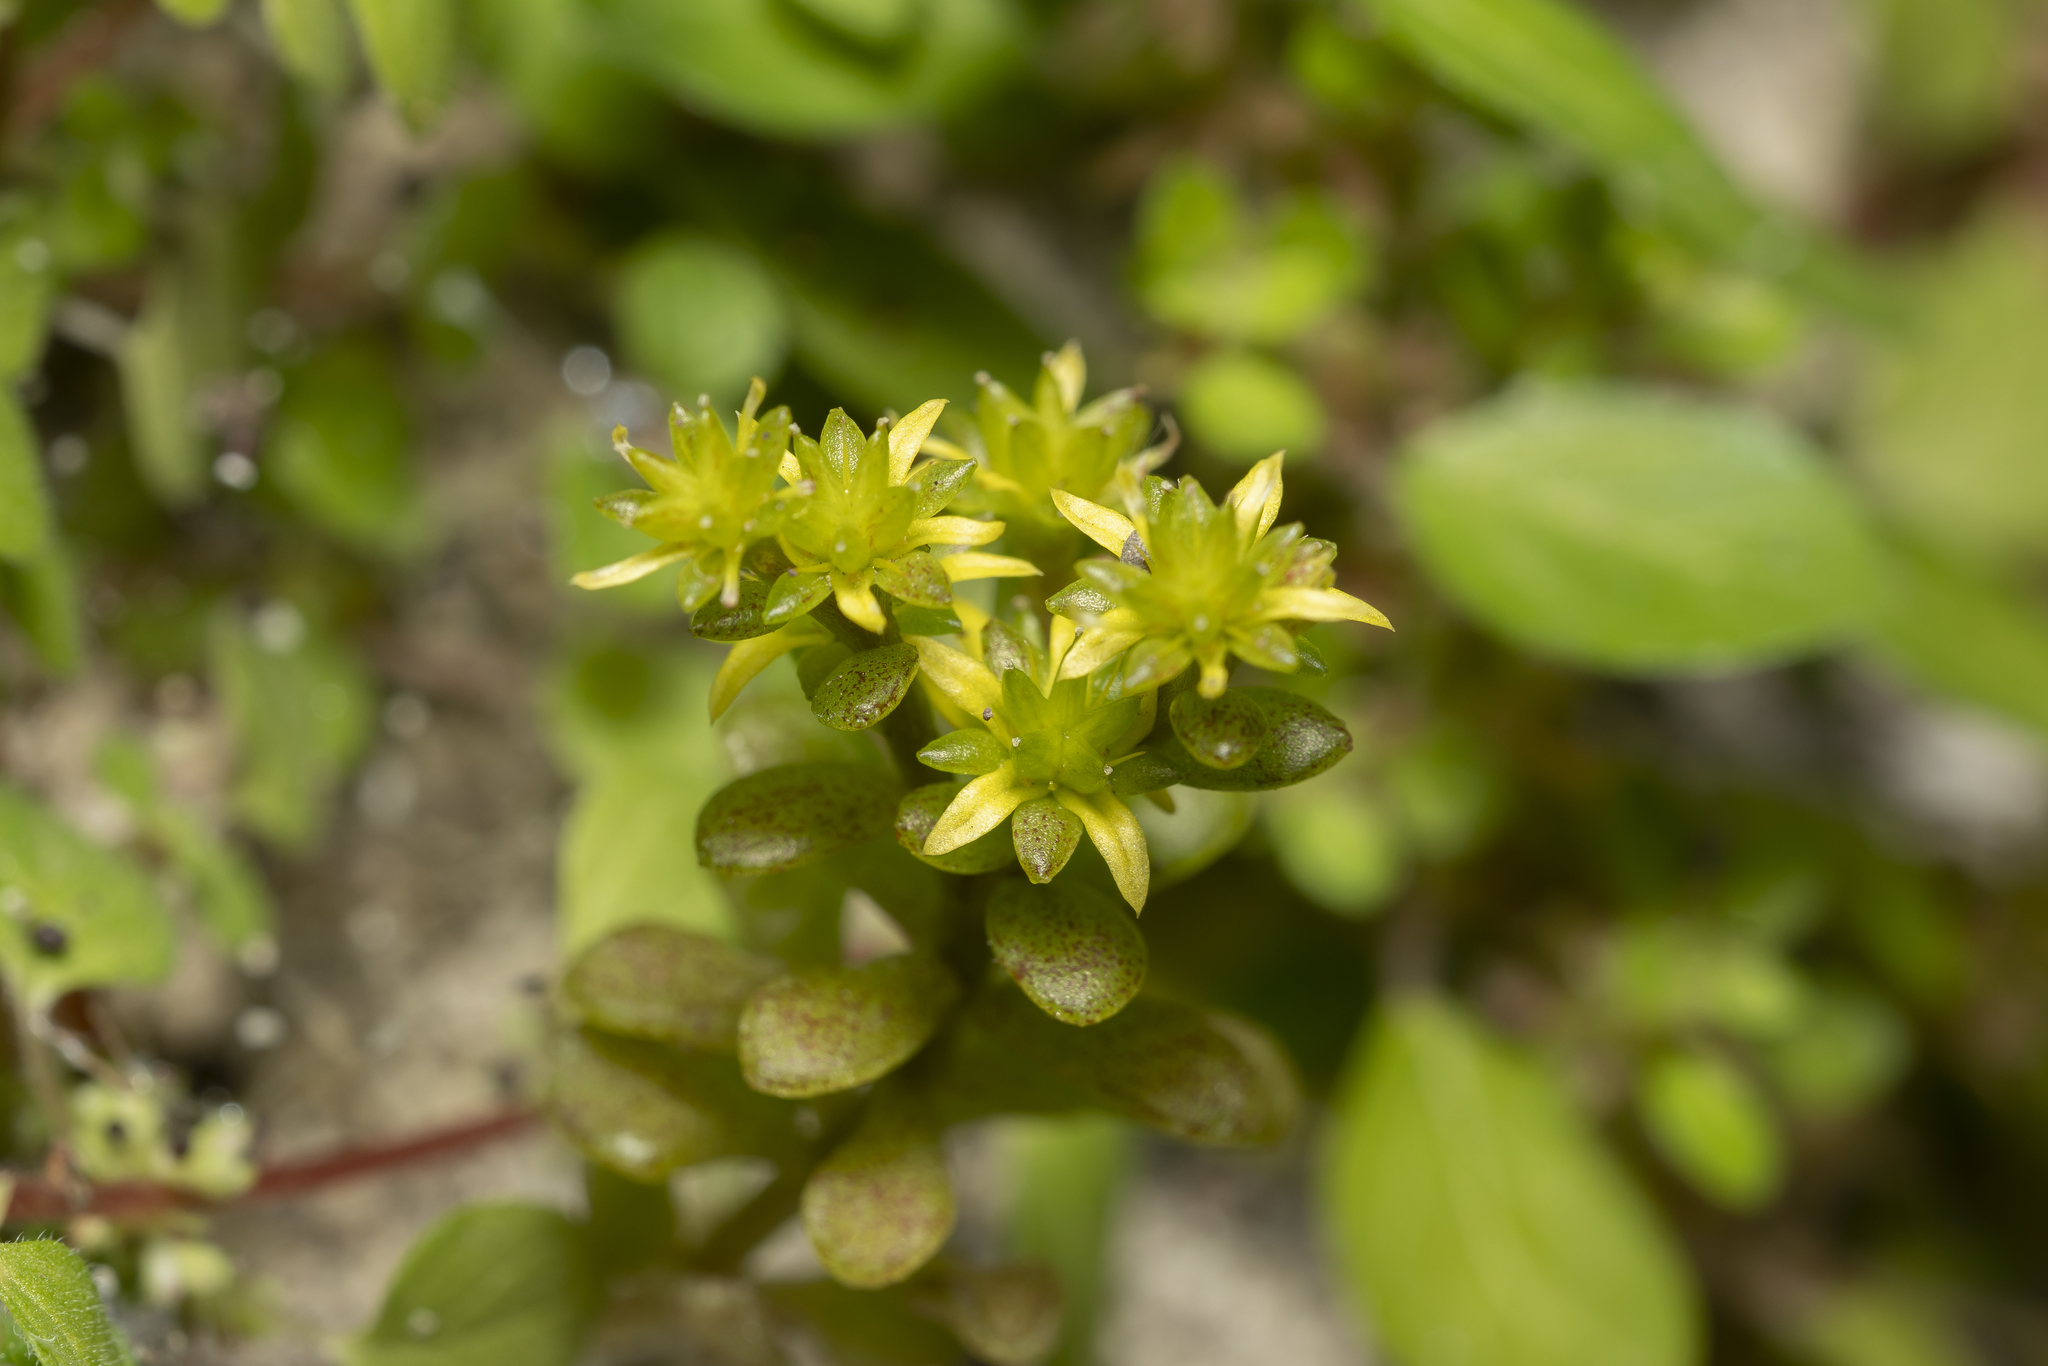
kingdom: Plantae
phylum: Tracheophyta
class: Magnoliopsida
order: Saxifragales
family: Crassulaceae
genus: Sedum
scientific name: Sedum litoreum
